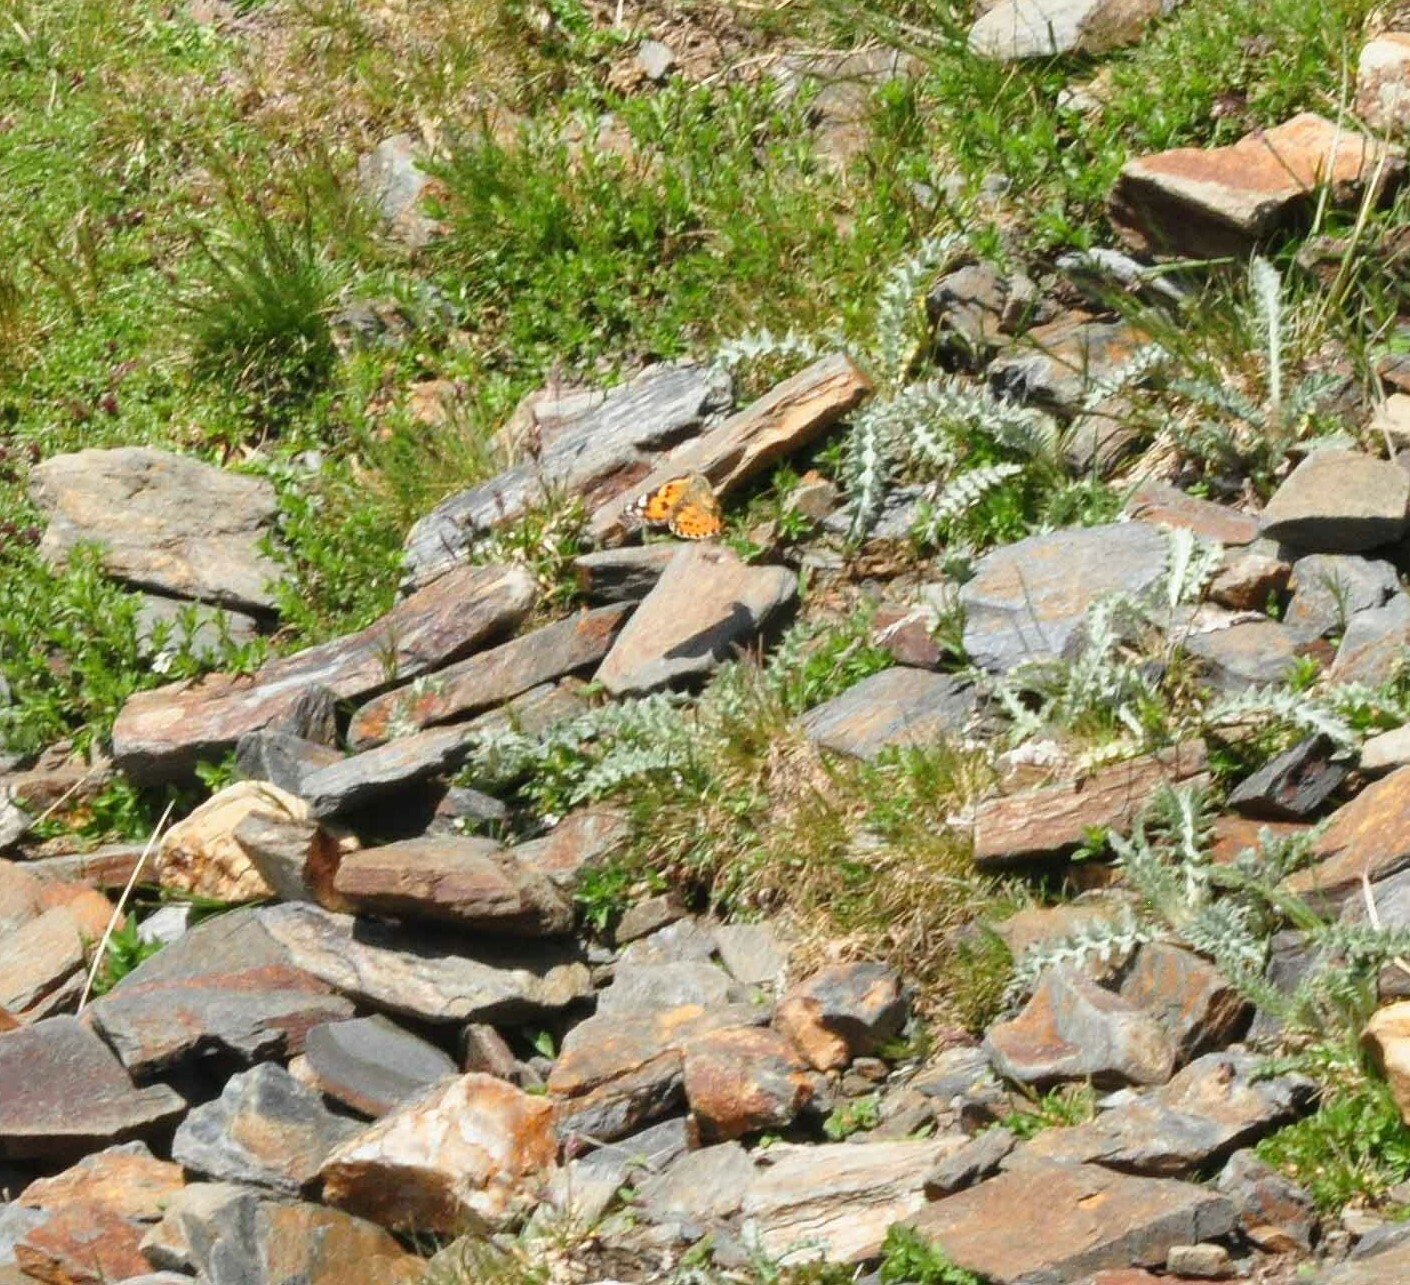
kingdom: Animalia
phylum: Arthropoda
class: Insecta
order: Lepidoptera
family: Nymphalidae
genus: Vanessa
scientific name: Vanessa cardui
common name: Painted lady
